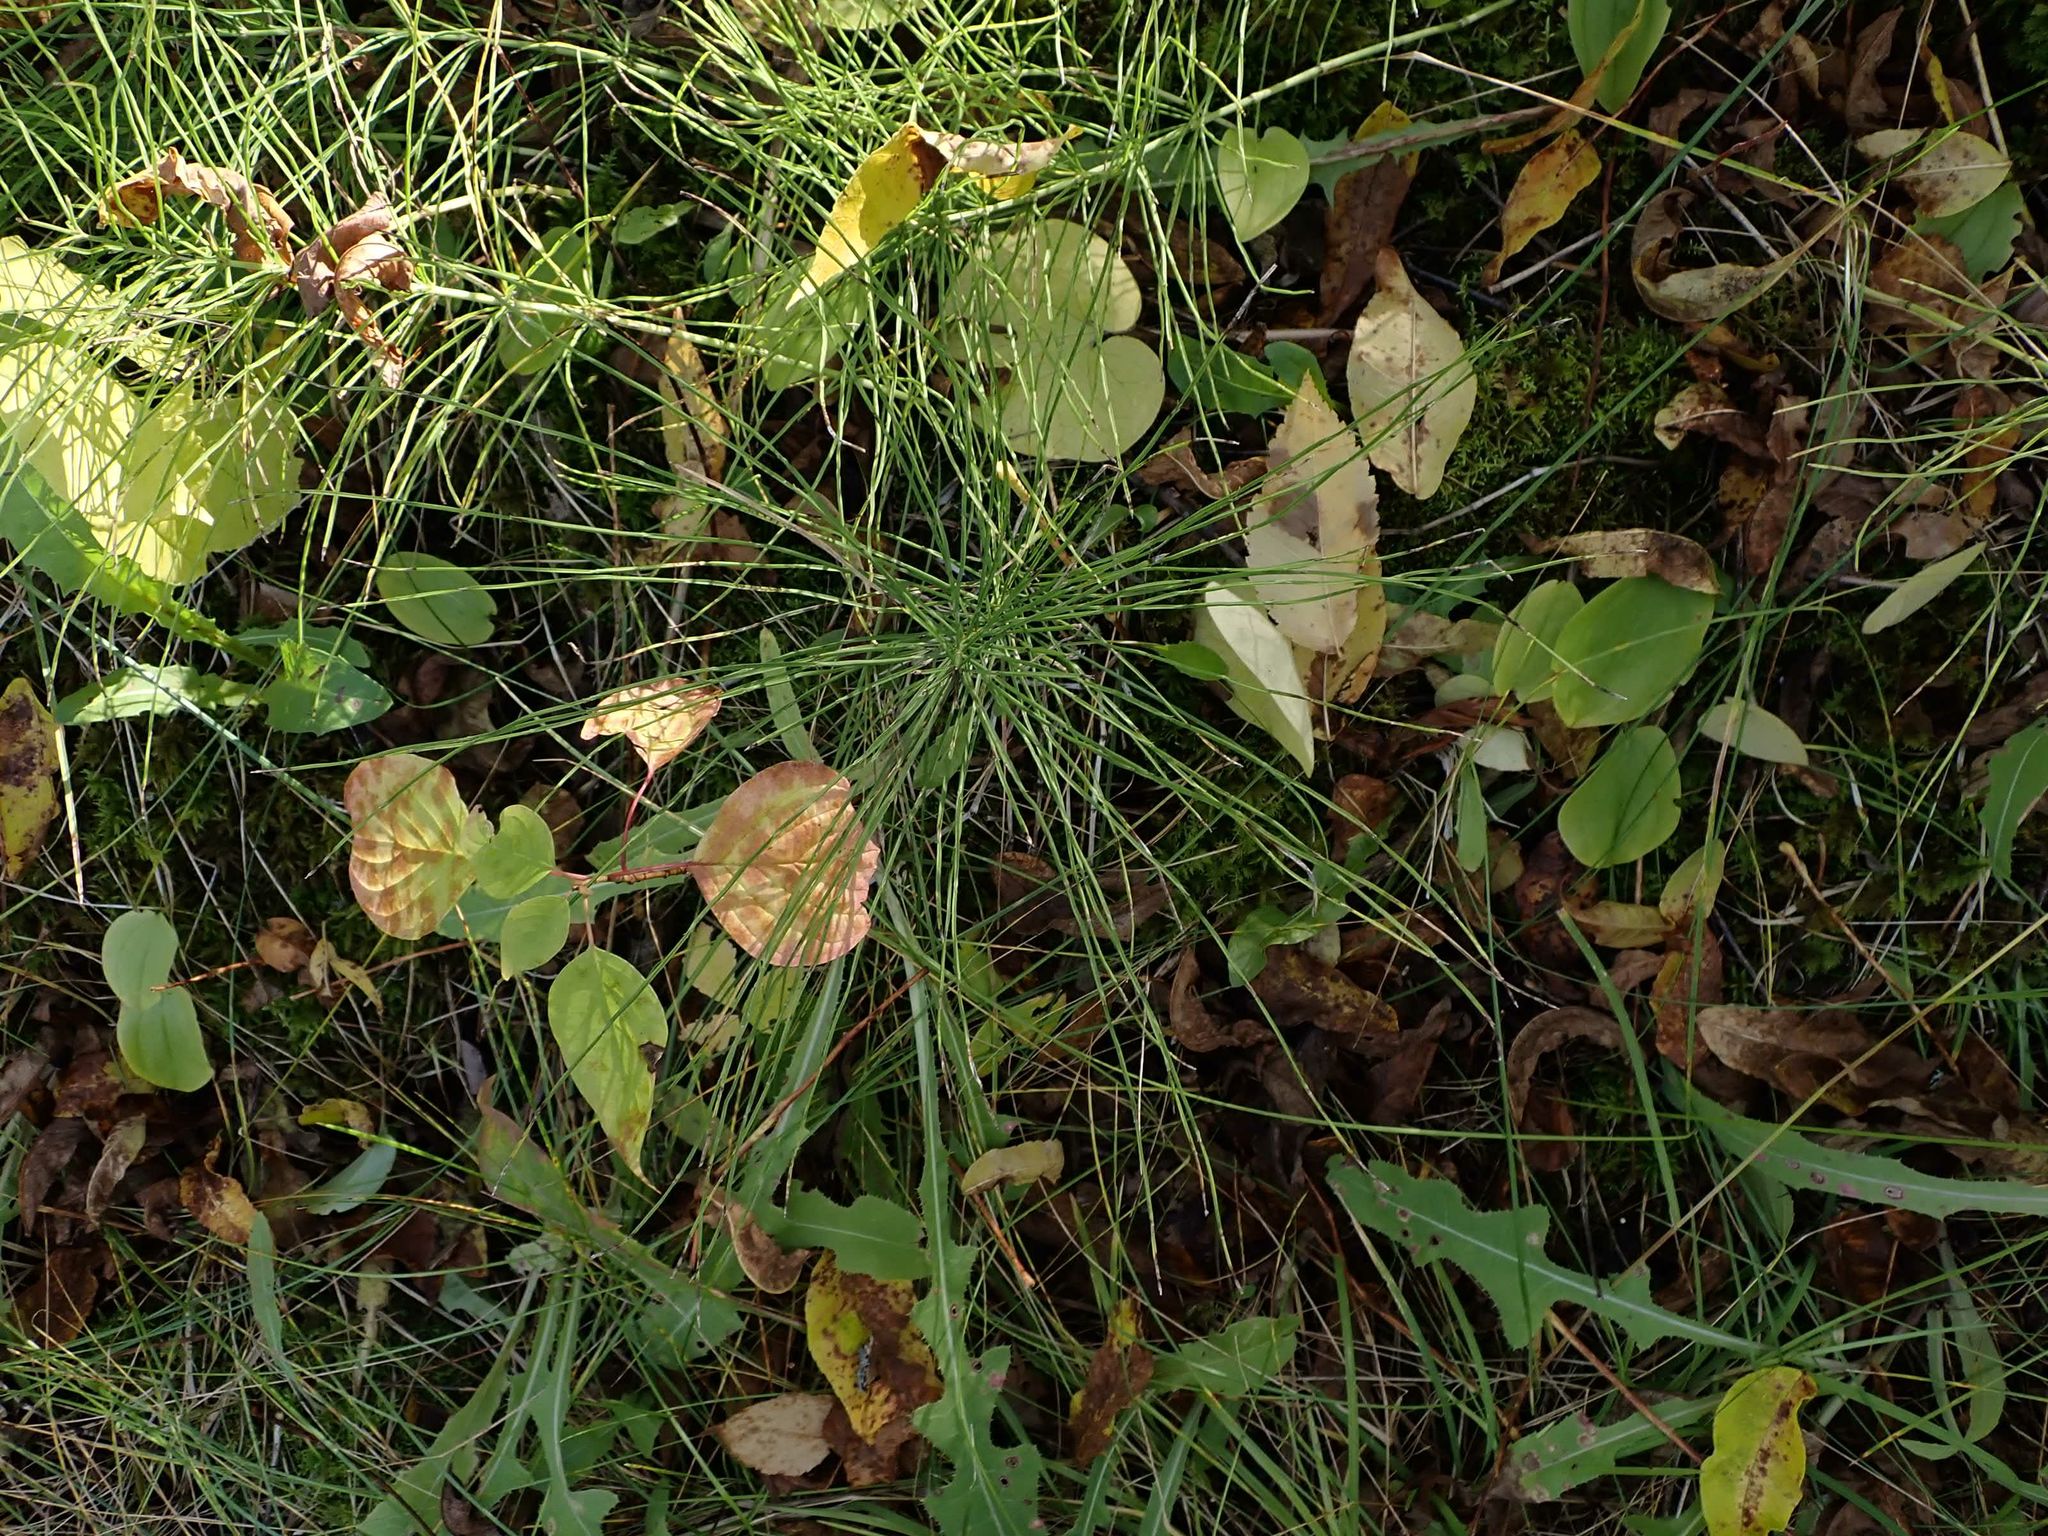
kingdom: Plantae
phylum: Tracheophyta
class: Polypodiopsida
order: Equisetales
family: Equisetaceae
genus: Equisetum
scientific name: Equisetum arvense
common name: Field horsetail
